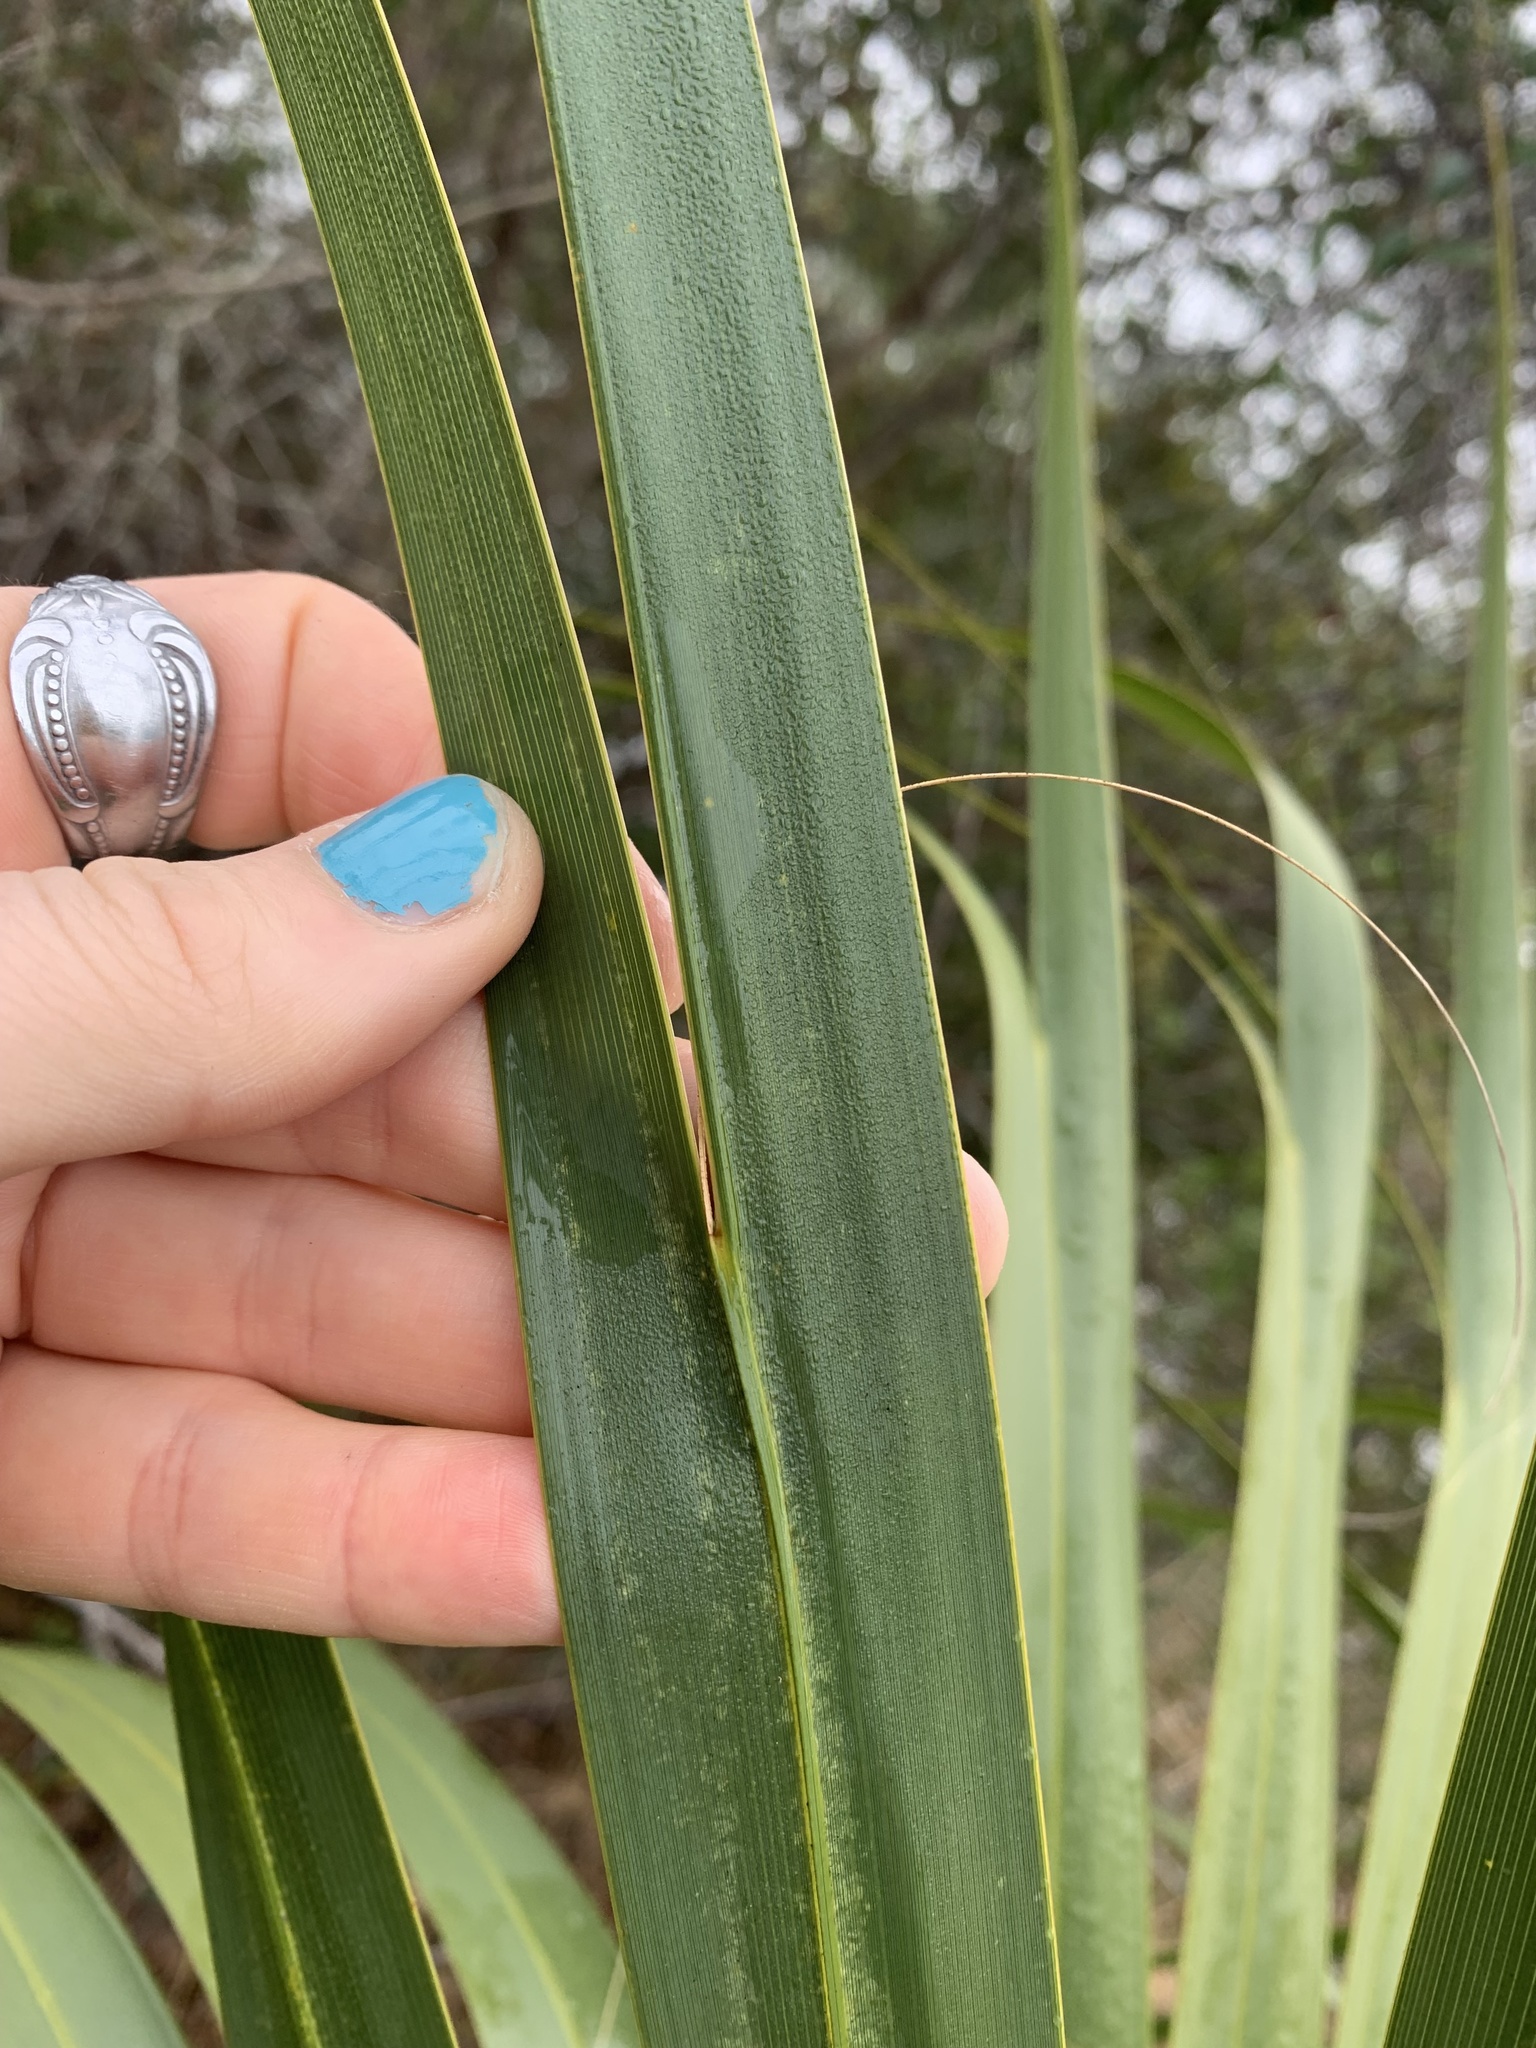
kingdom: Plantae
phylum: Tracheophyta
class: Liliopsida
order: Arecales
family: Arecaceae
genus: Sabal
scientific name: Sabal palmetto
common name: Blue palmetto
